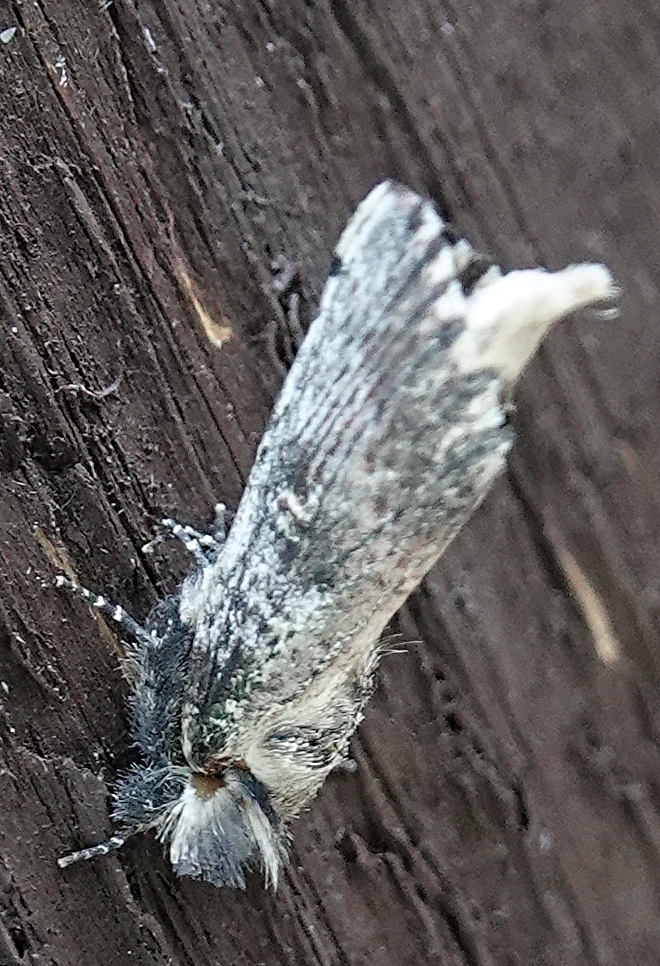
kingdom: Animalia
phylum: Arthropoda
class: Insecta
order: Lepidoptera
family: Notodontidae
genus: Schizura
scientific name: Schizura ipomaeae
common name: Morning-glory prominent
